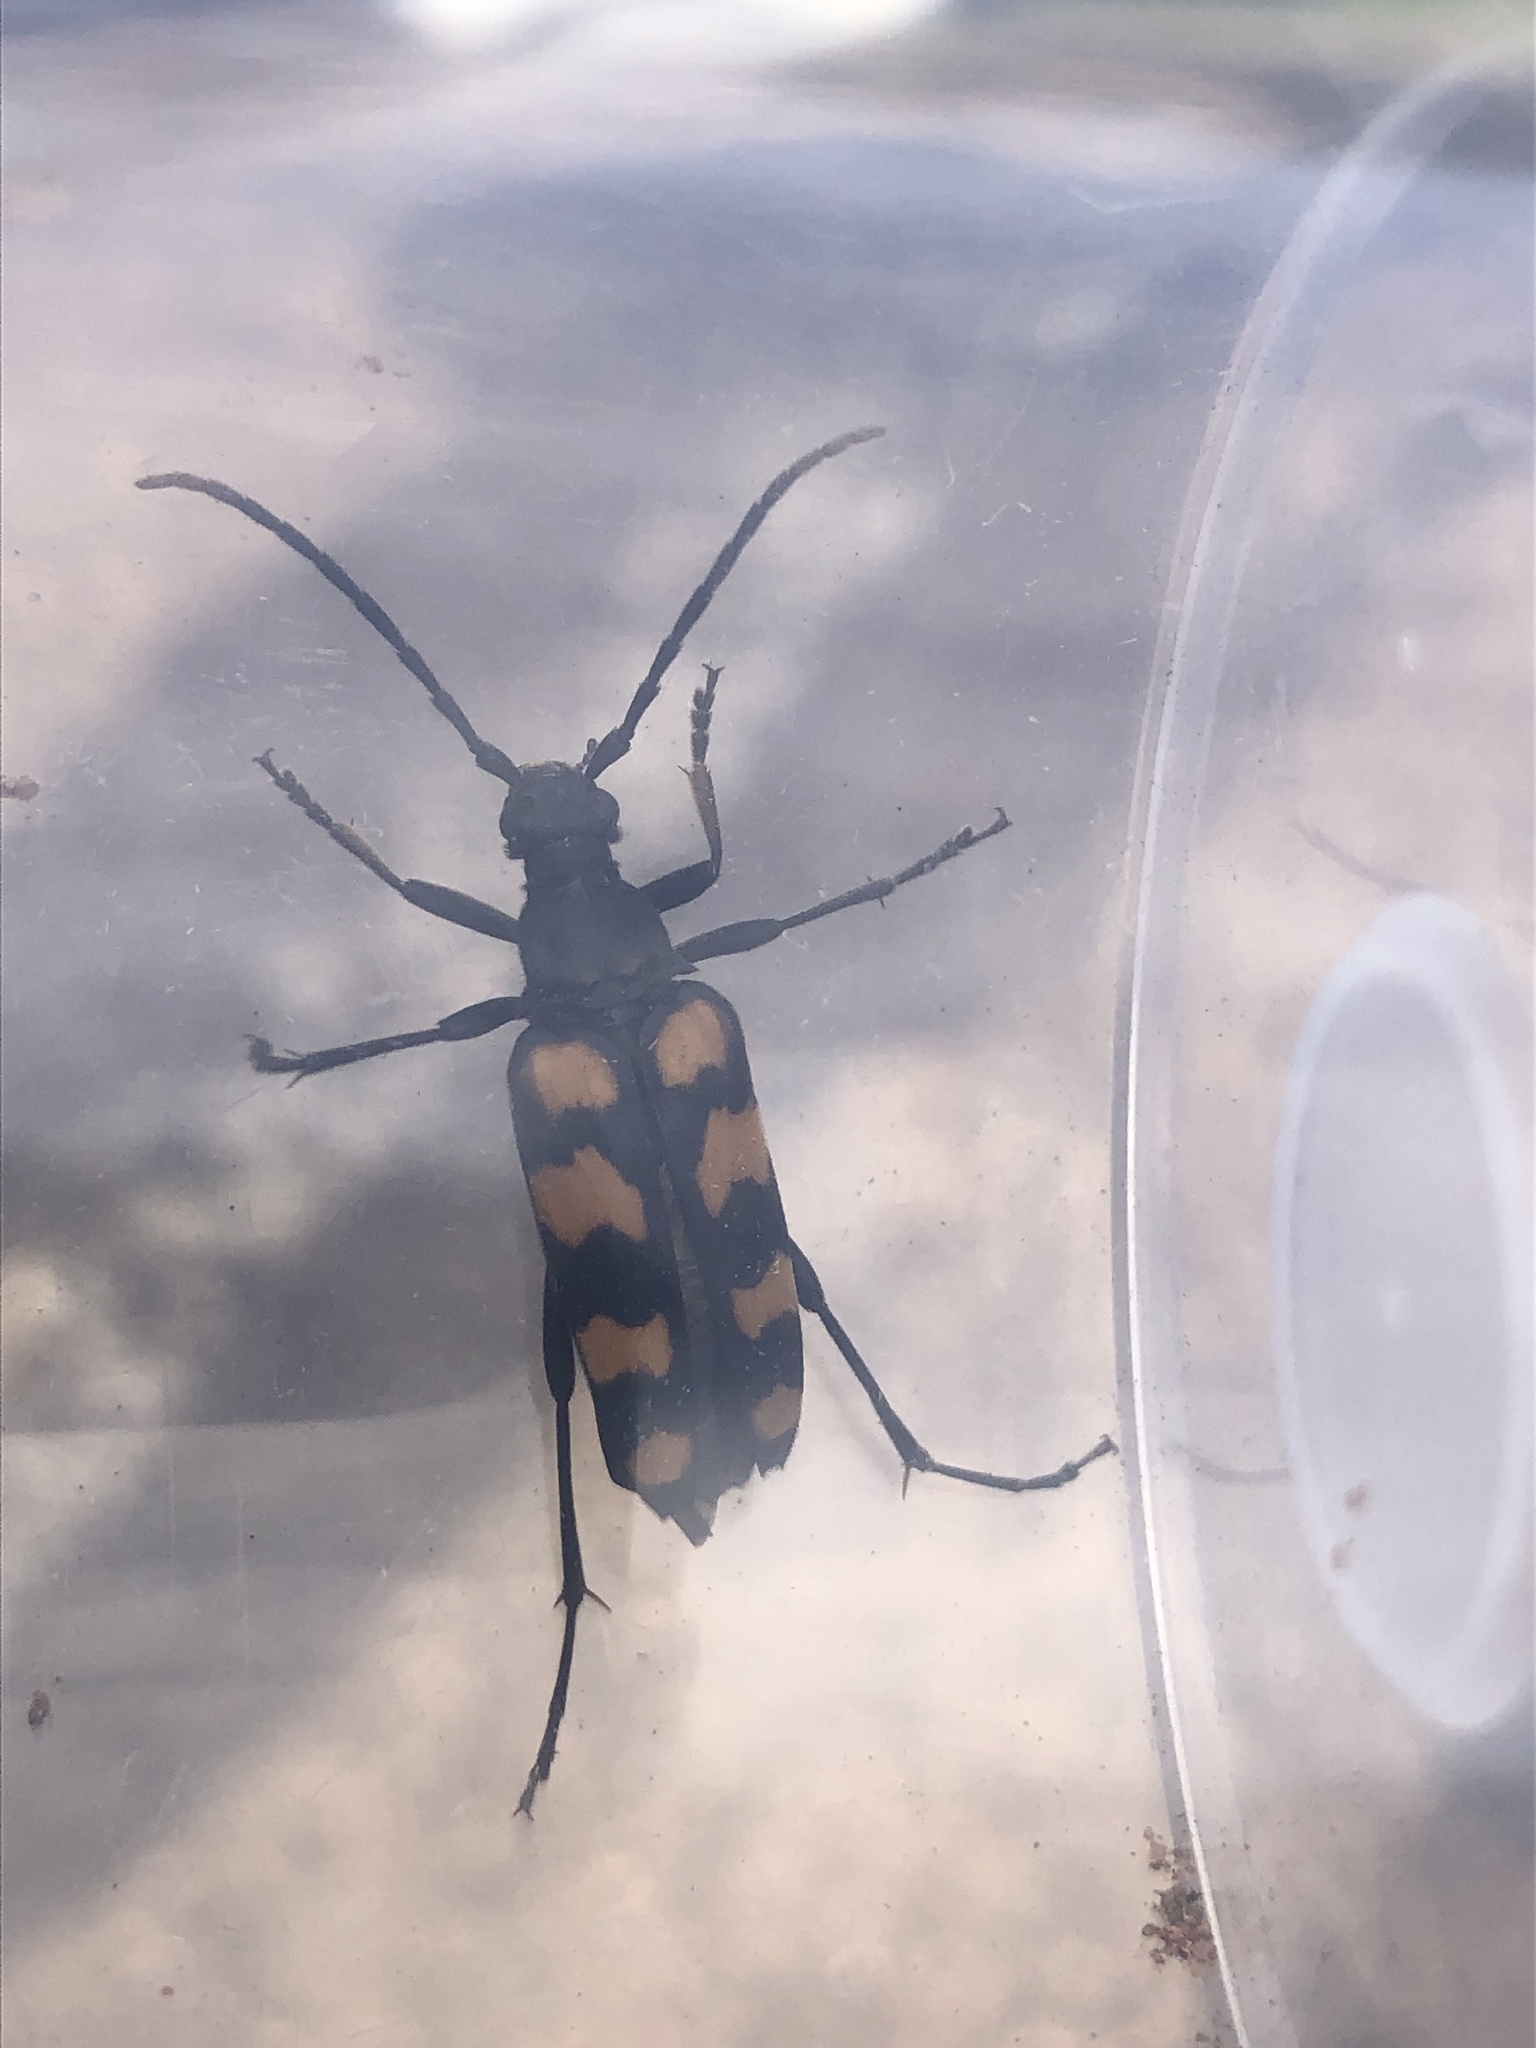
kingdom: Animalia
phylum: Arthropoda
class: Insecta
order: Coleoptera
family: Cerambycidae
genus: Leptura
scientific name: Leptura quadrifasciata
